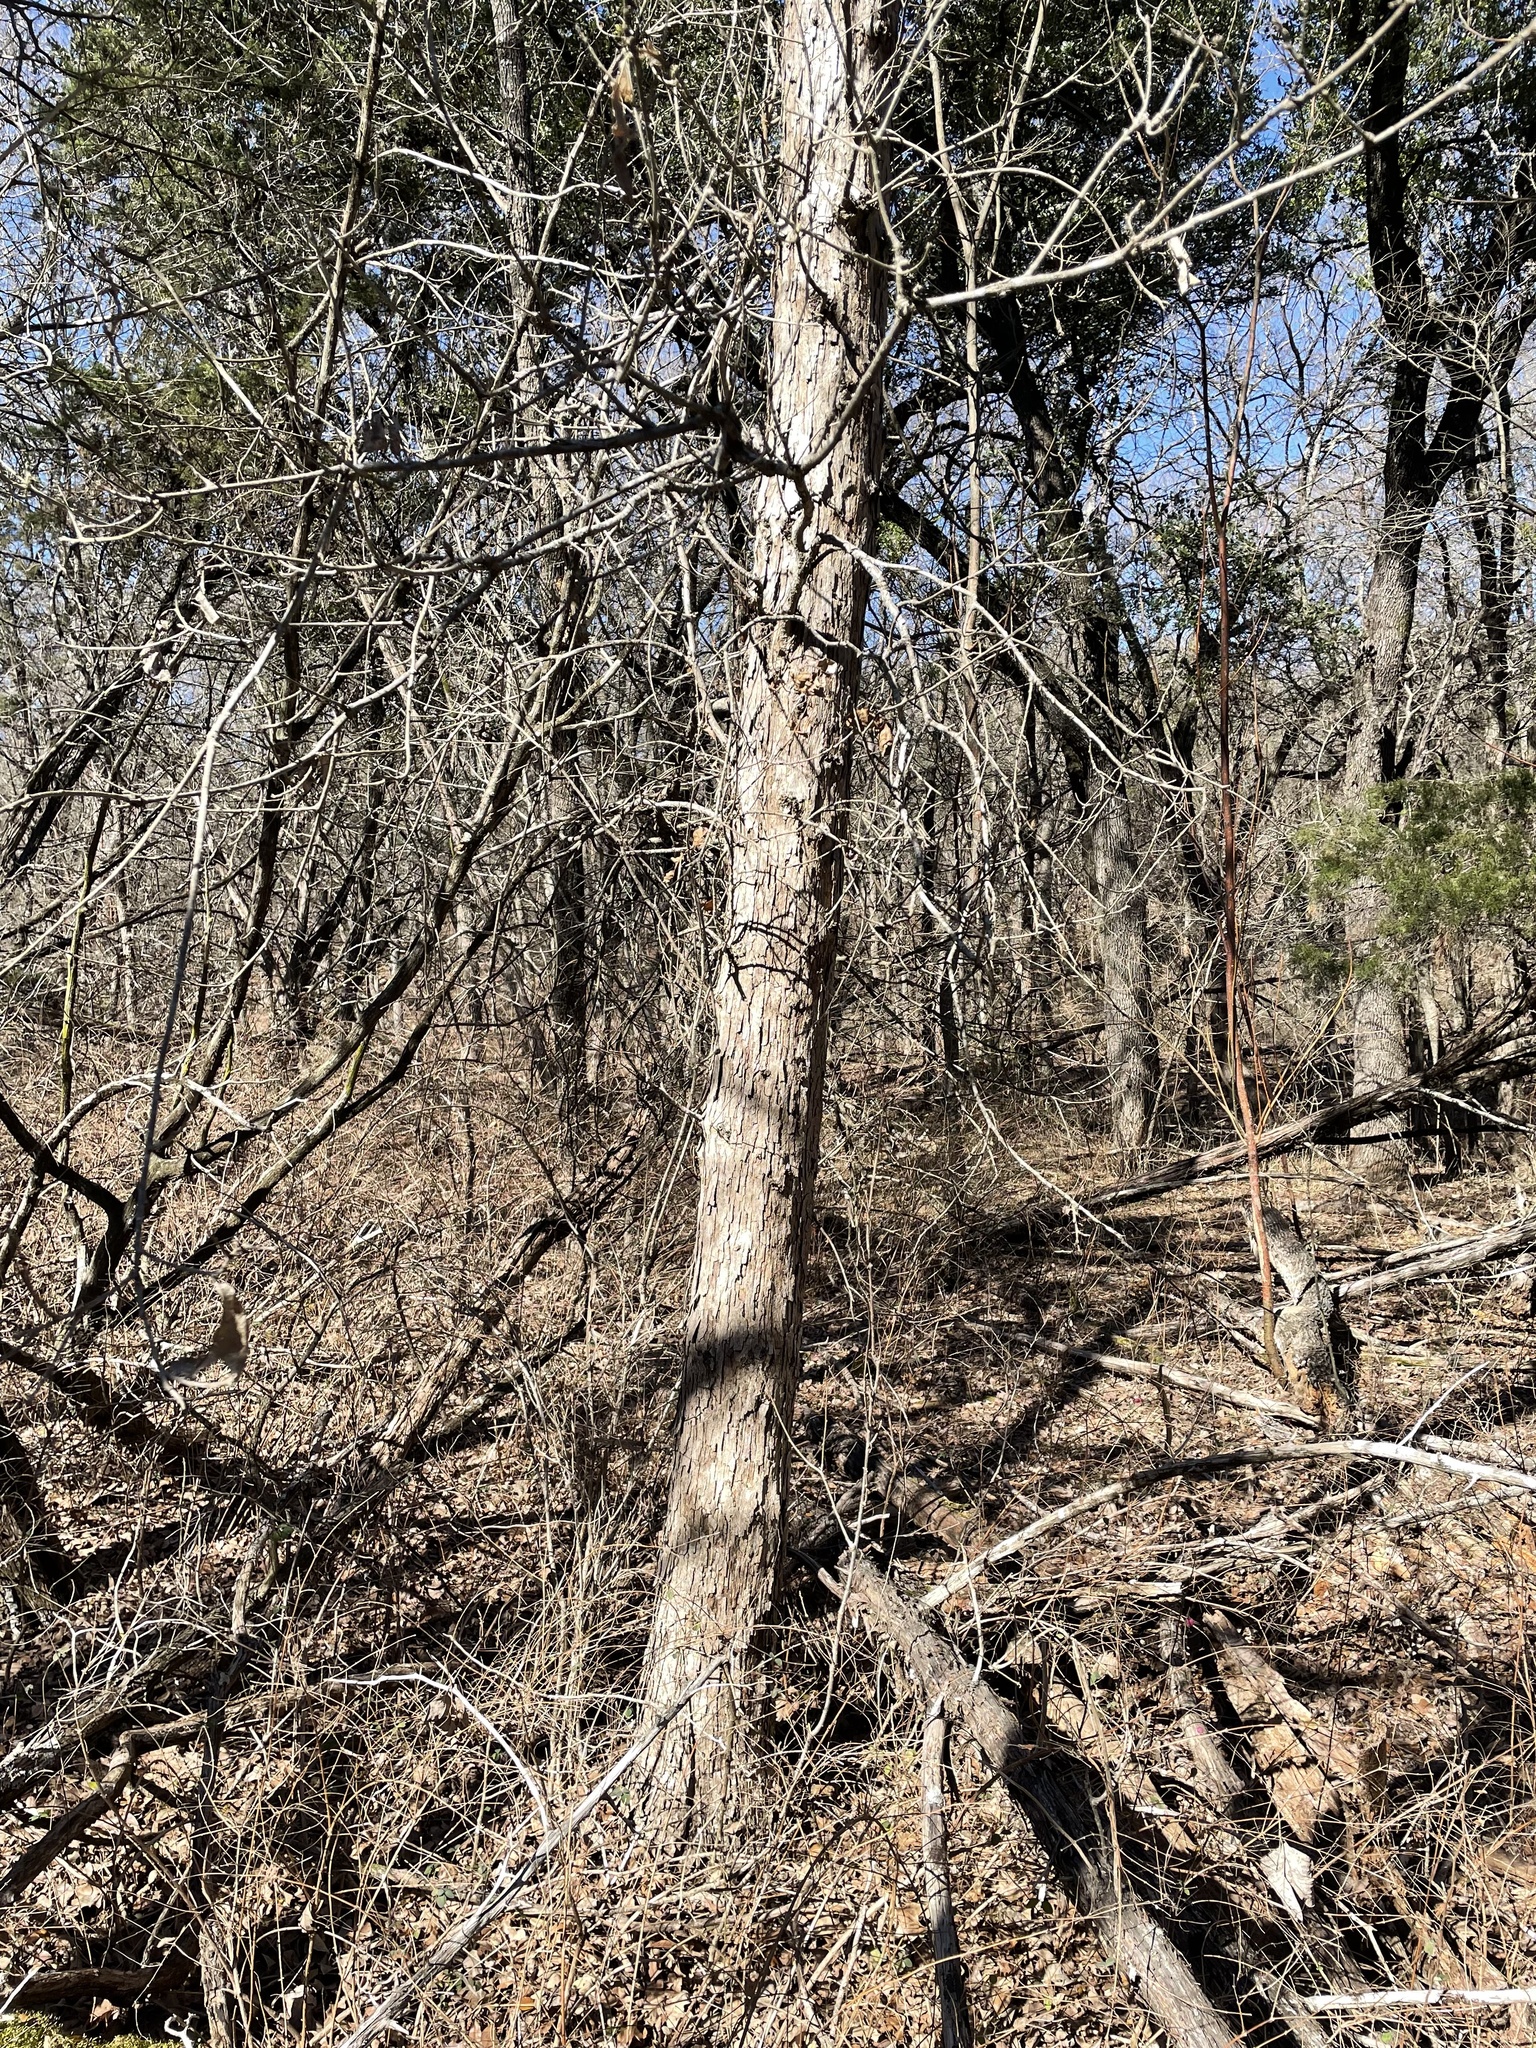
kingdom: Plantae
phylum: Tracheophyta
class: Magnoliopsida
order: Fagales
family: Fagaceae
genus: Quercus
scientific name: Quercus sinuata
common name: Durand oak
